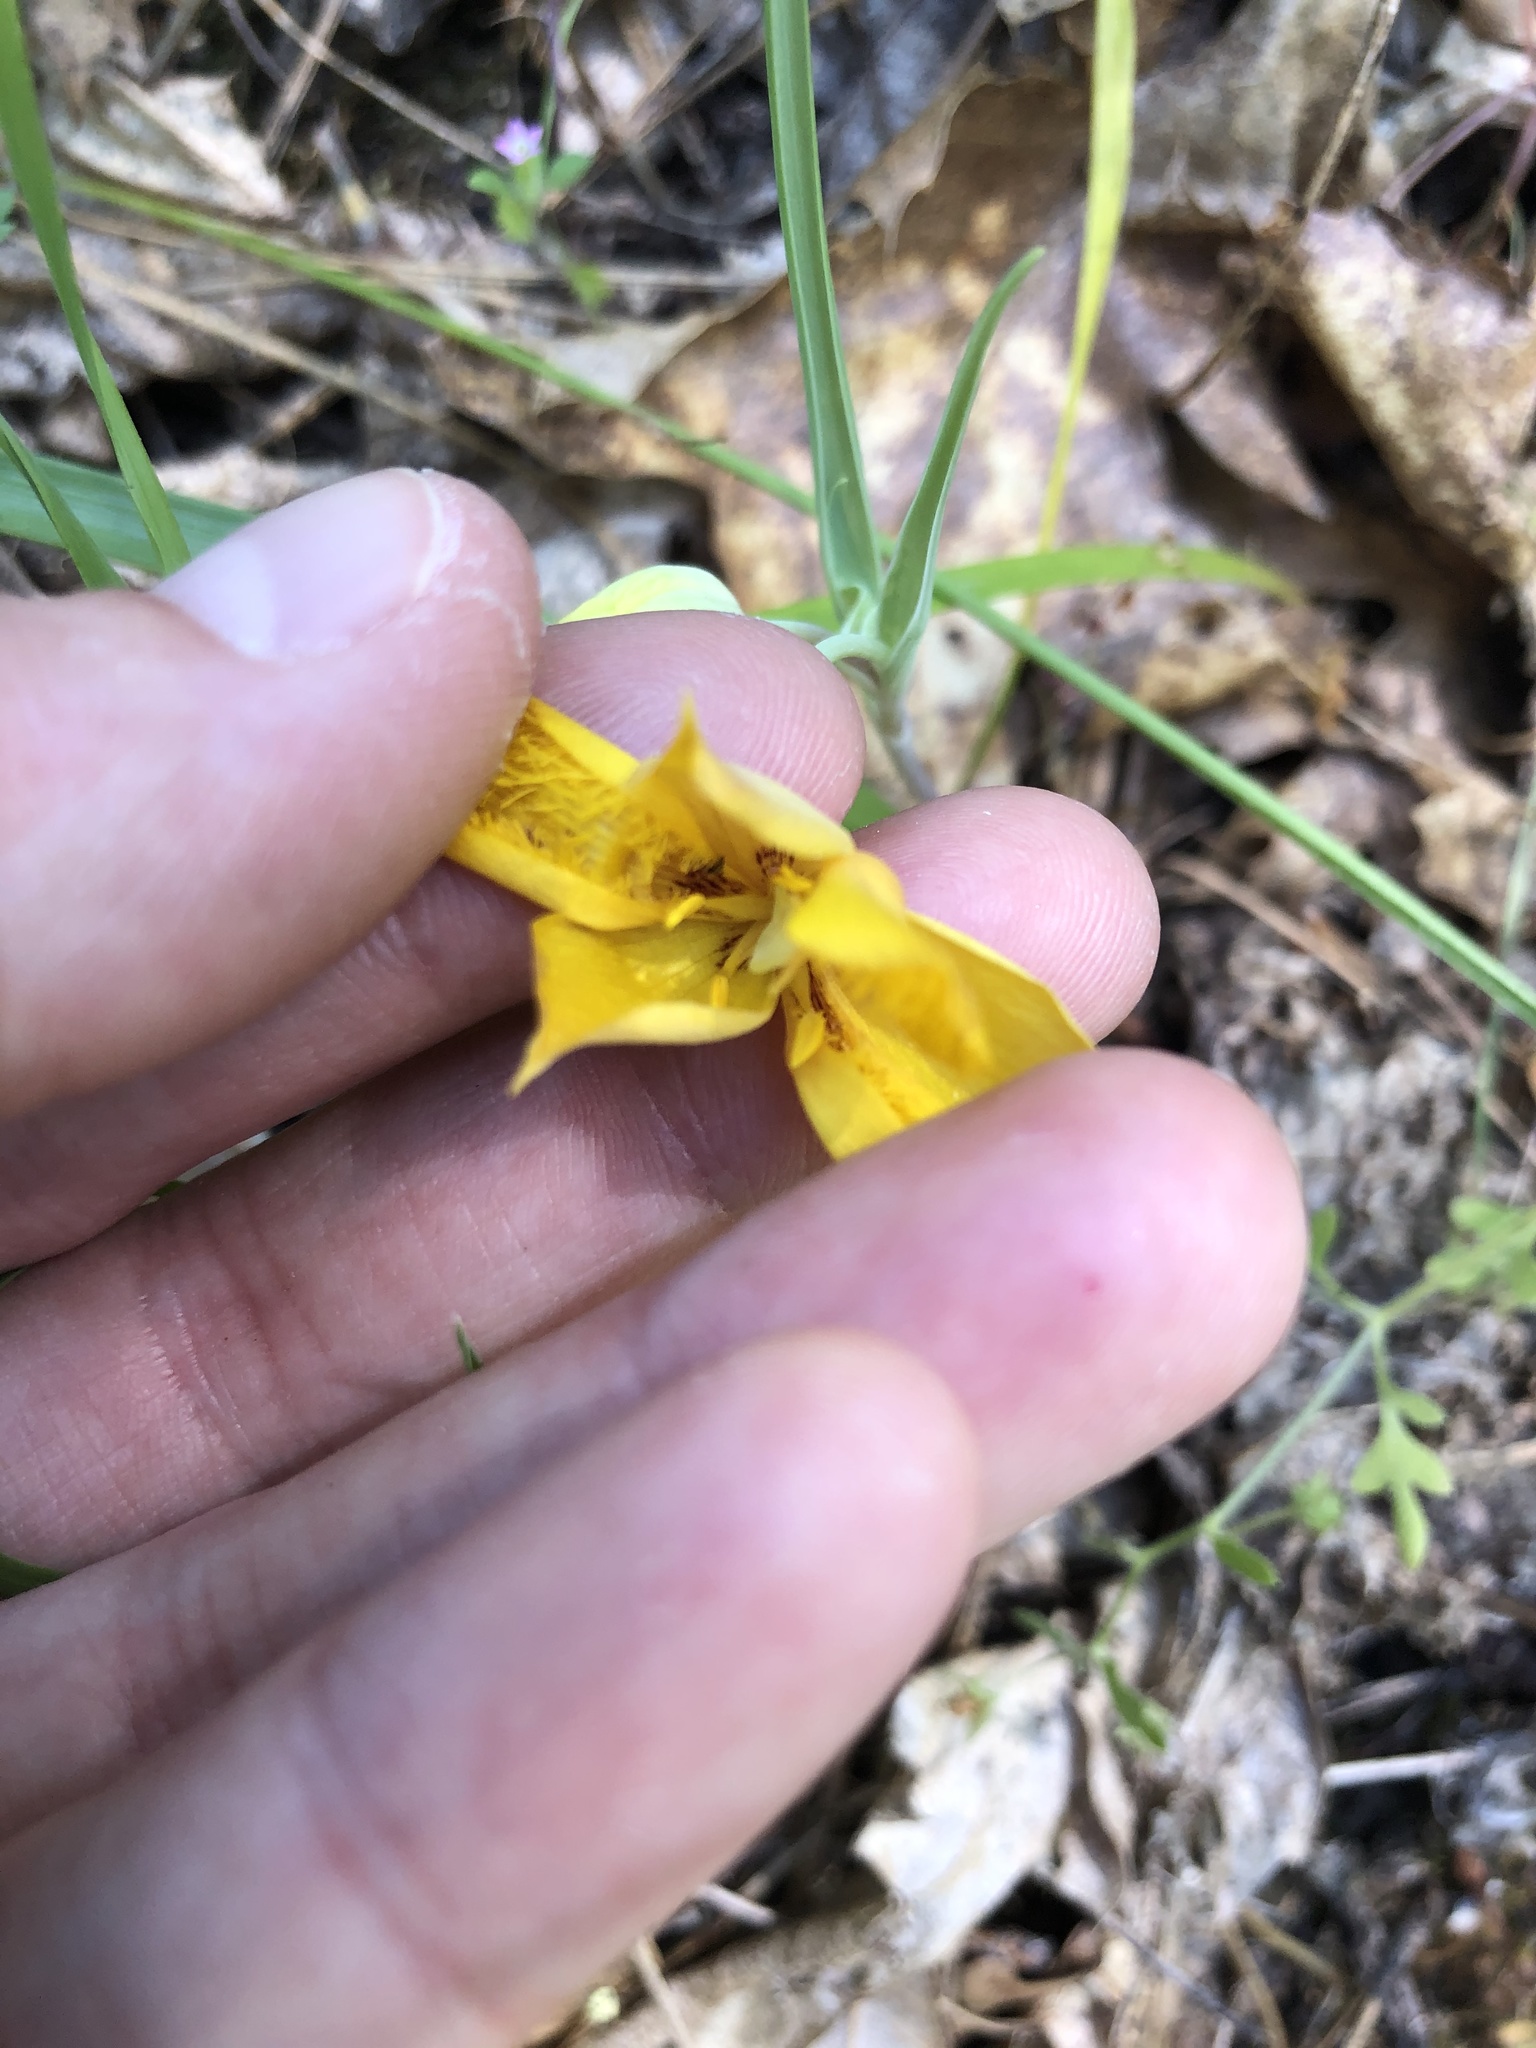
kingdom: Plantae
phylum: Tracheophyta
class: Liliopsida
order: Liliales
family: Liliaceae
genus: Calochortus
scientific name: Calochortus monophyllus
